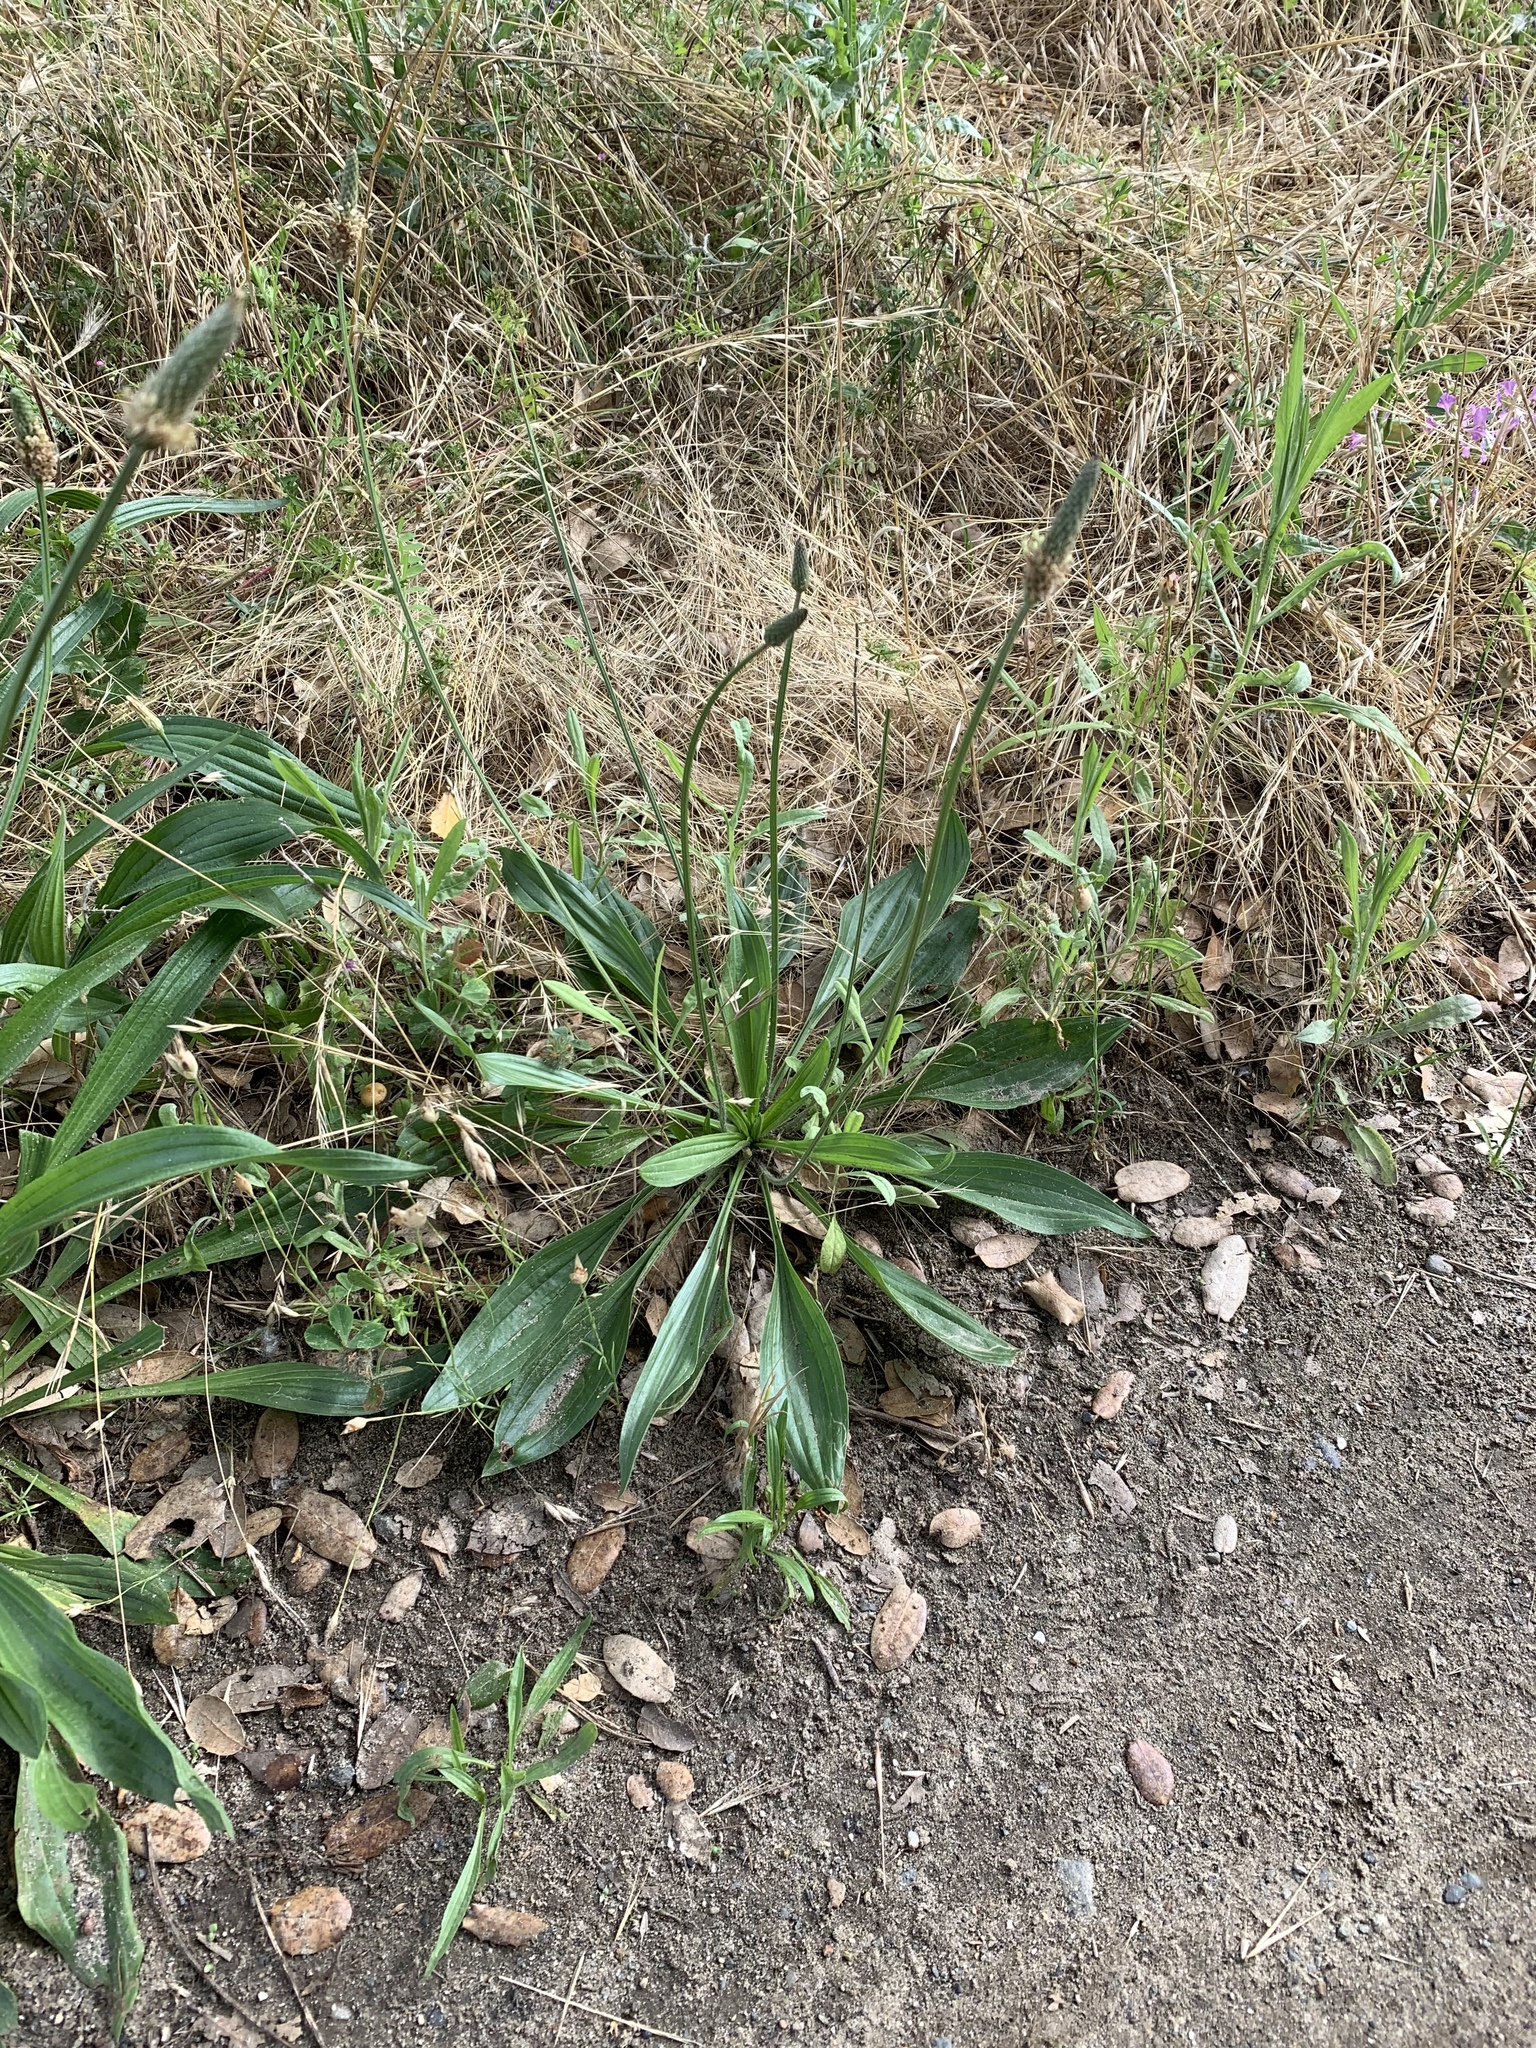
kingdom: Plantae
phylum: Tracheophyta
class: Magnoliopsida
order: Lamiales
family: Plantaginaceae
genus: Plantago
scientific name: Plantago lanceolata
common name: Ribwort plantain
